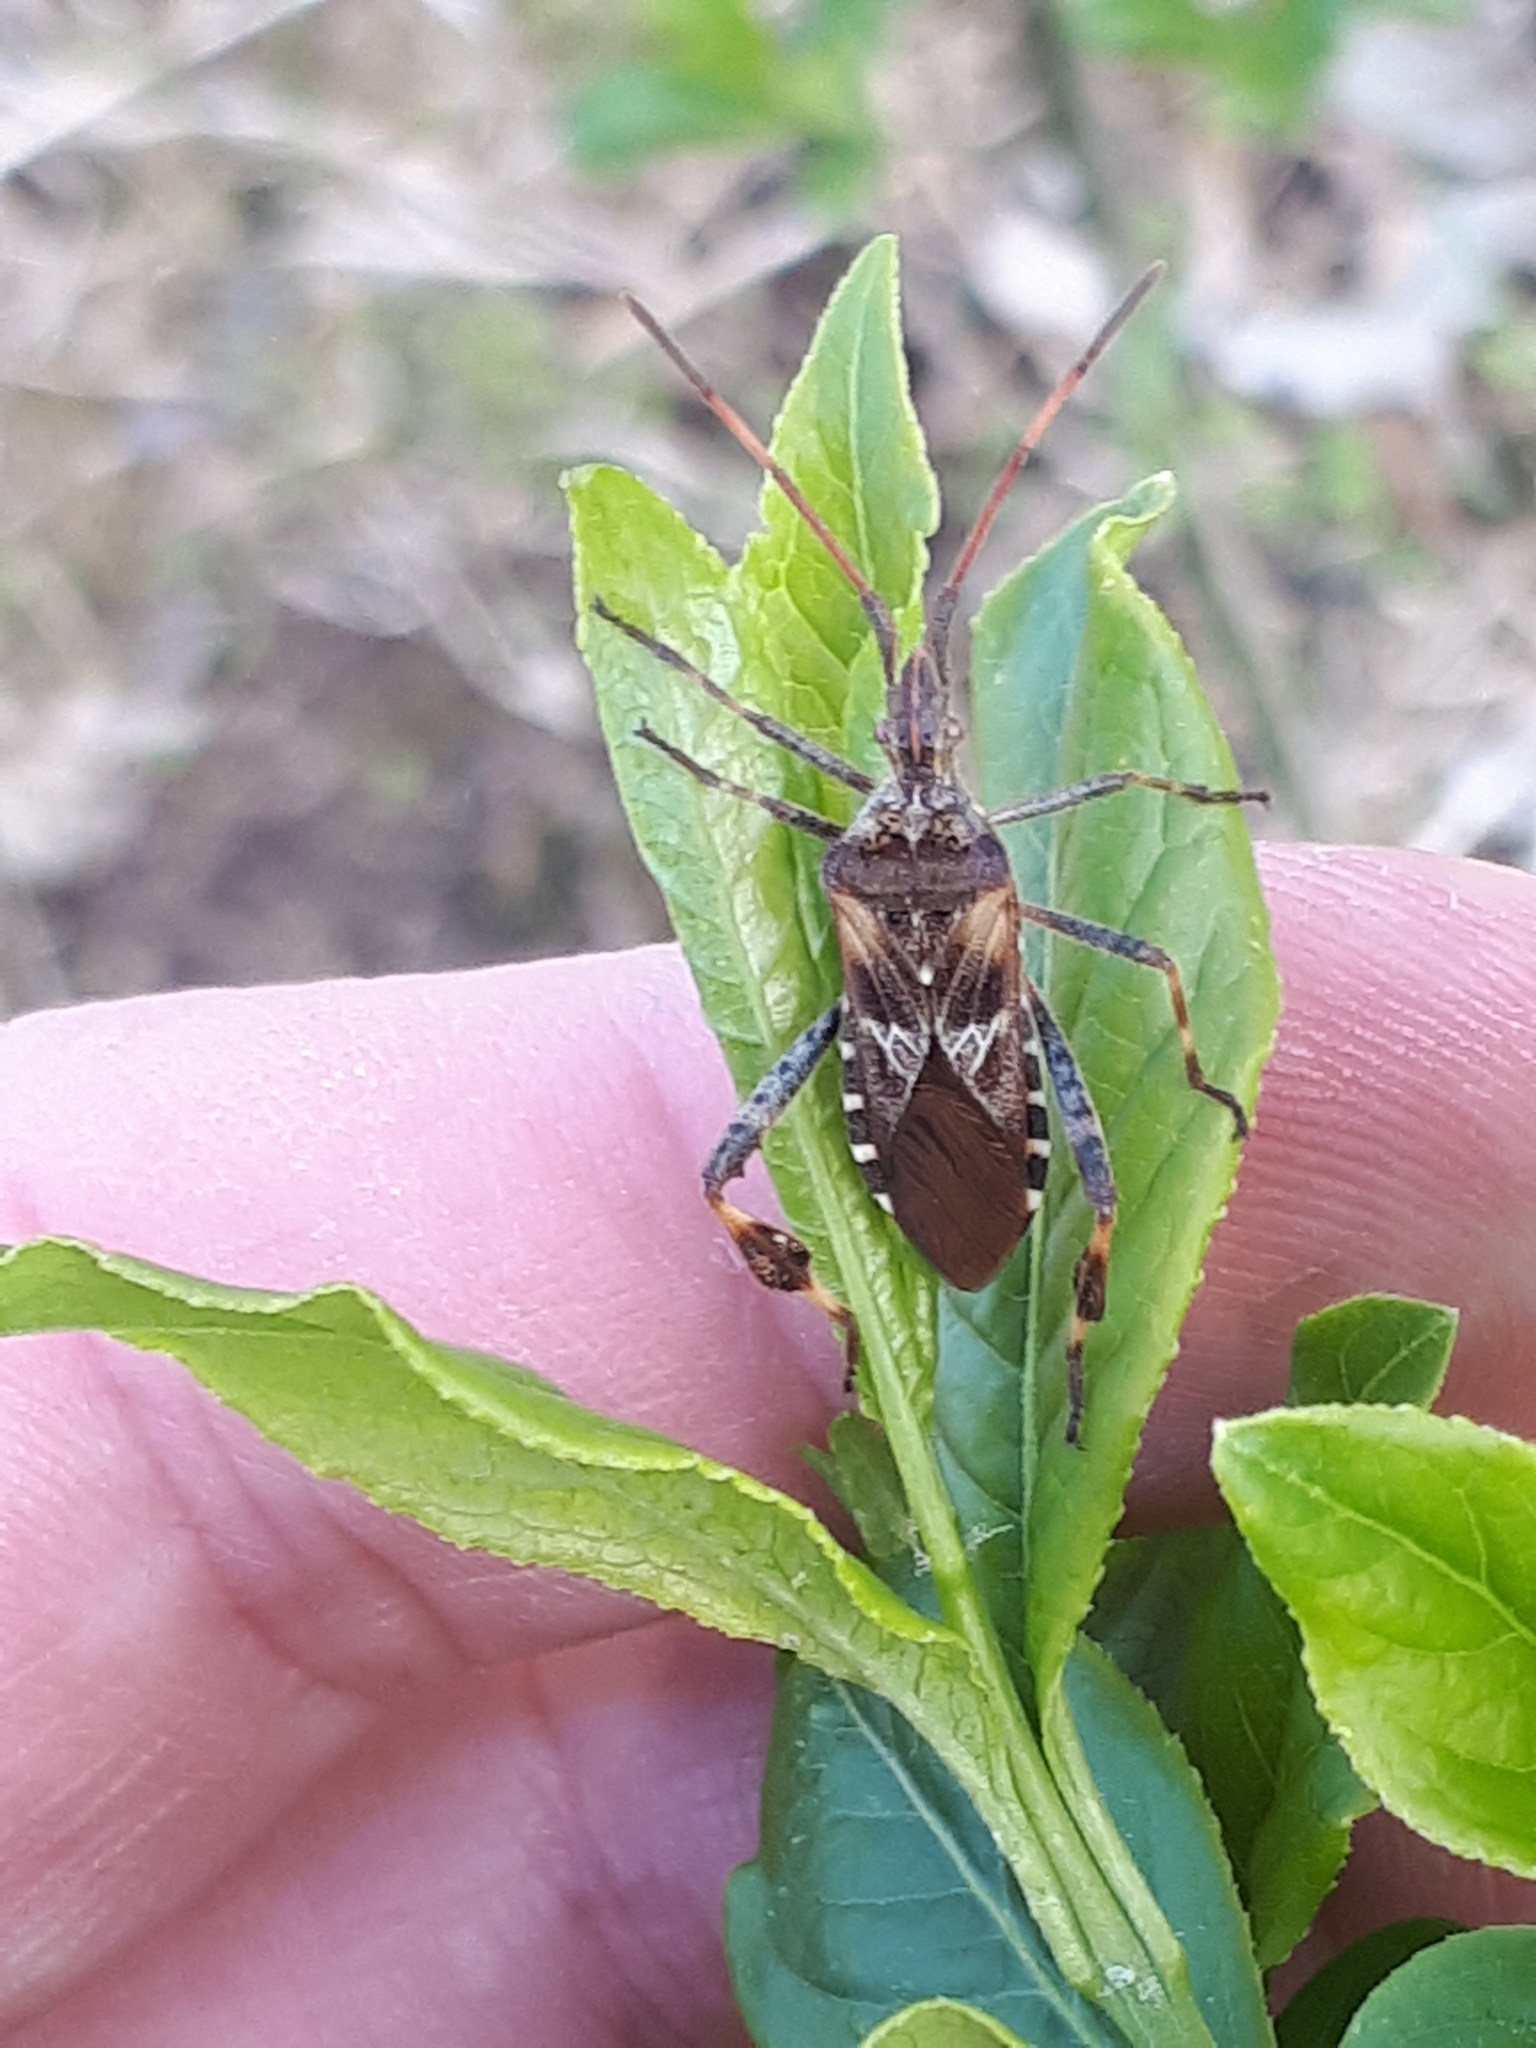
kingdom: Animalia
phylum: Arthropoda
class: Insecta
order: Hemiptera
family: Coreidae
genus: Leptoglossus
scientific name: Leptoglossus occidentalis
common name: Western conifer-seed bug
